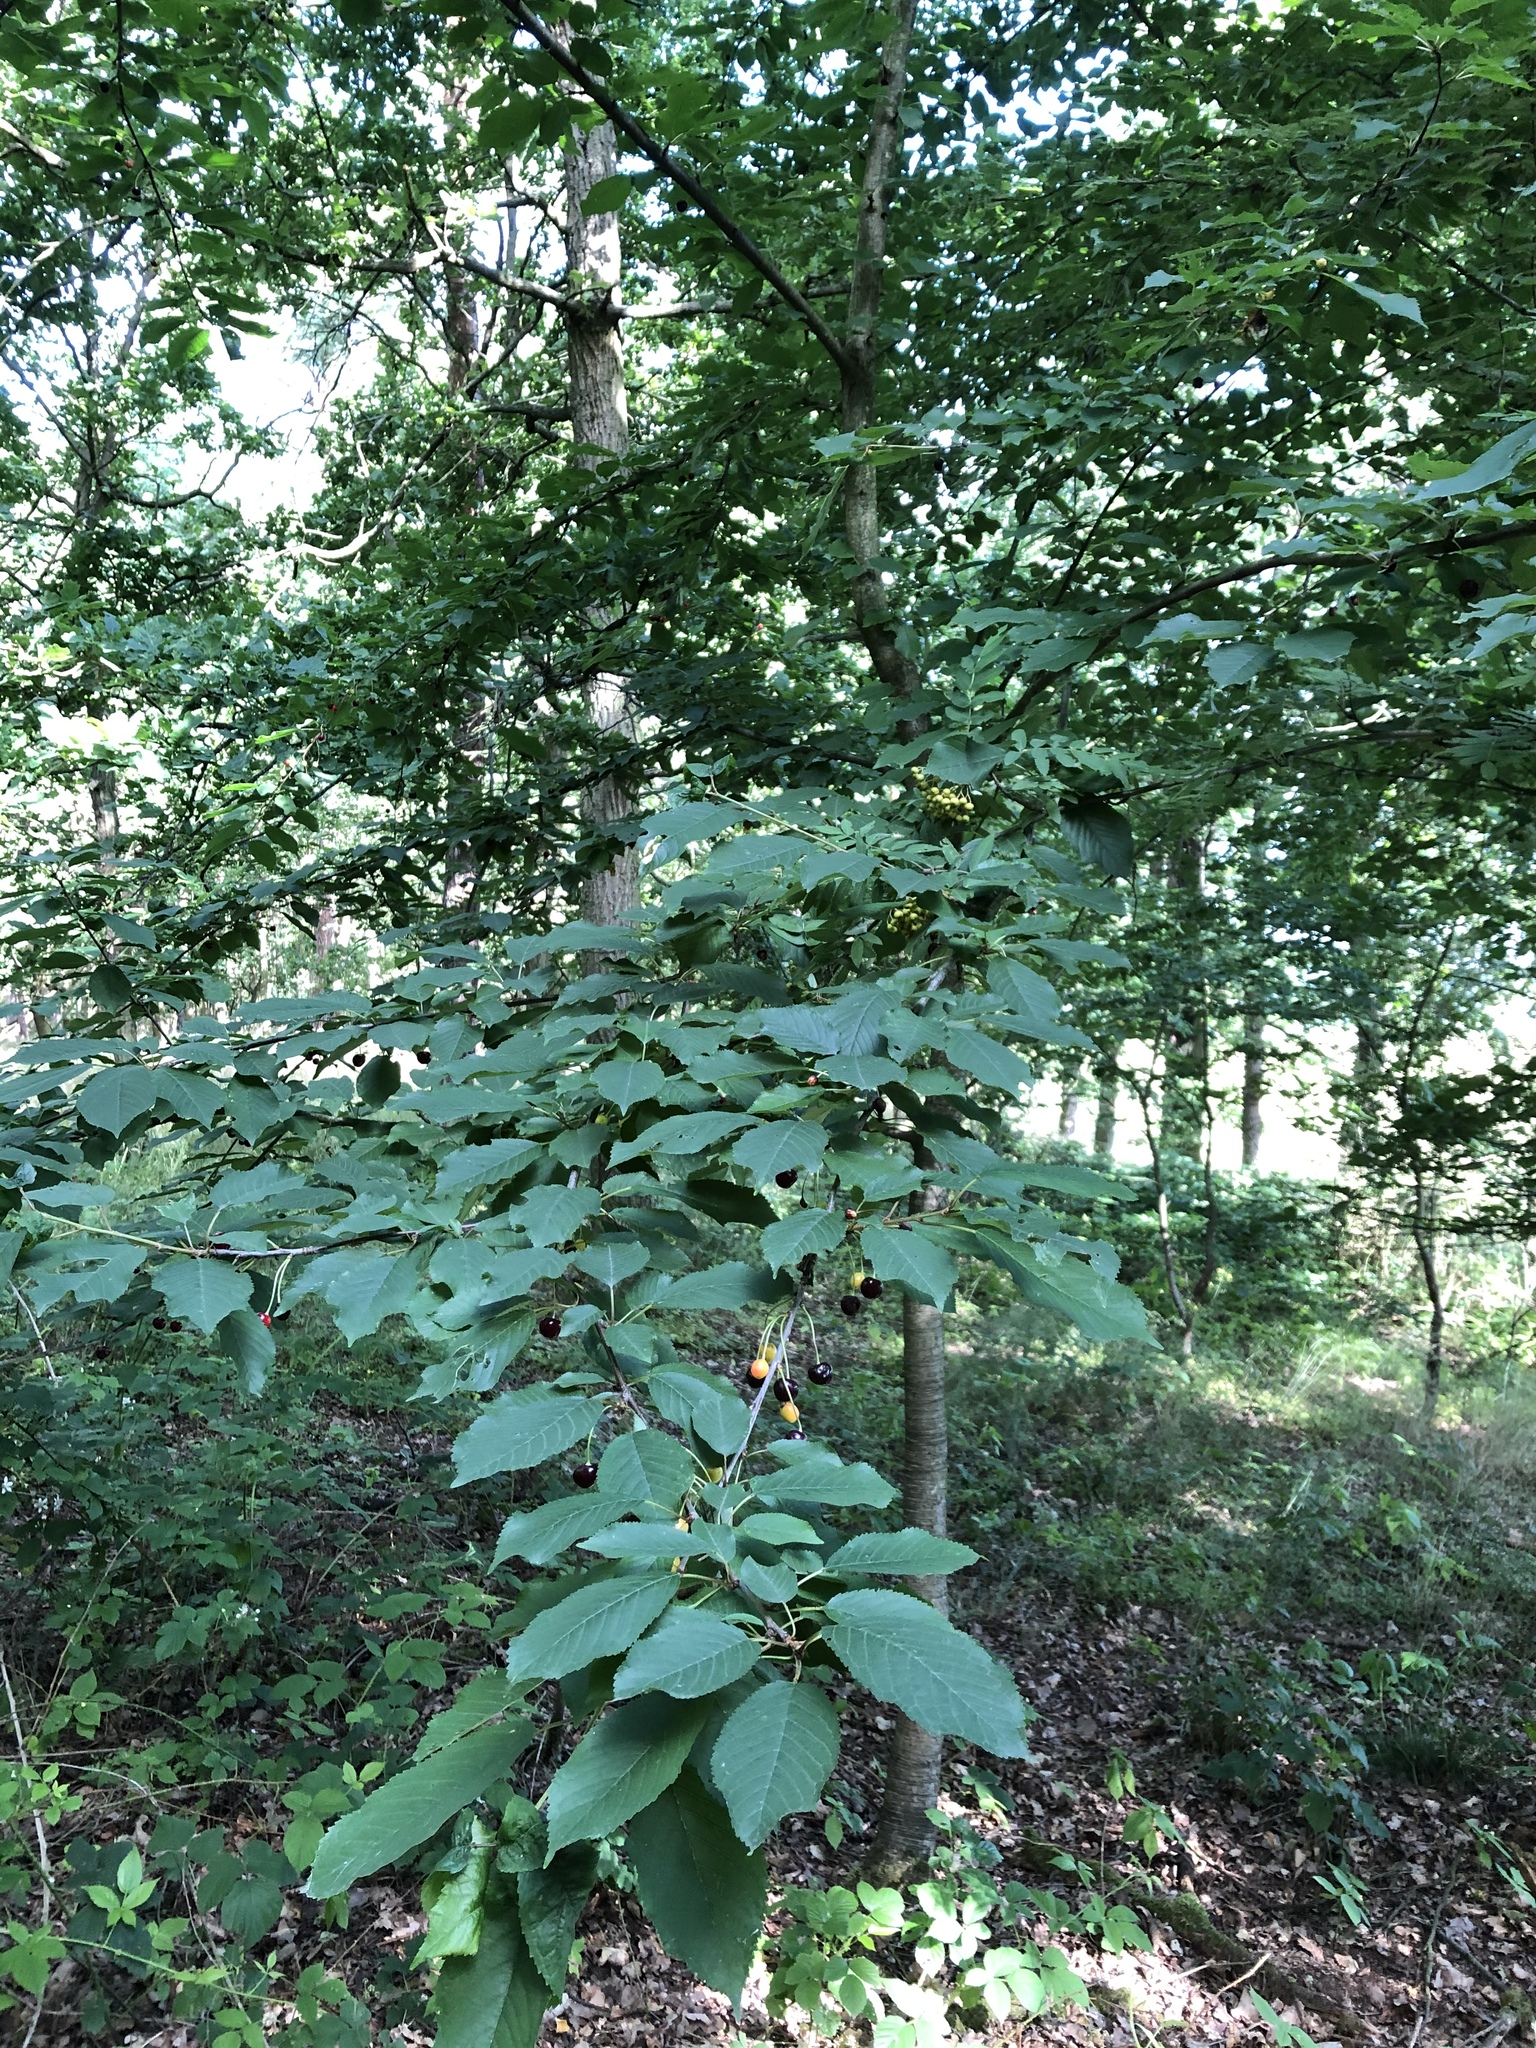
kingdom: Plantae
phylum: Tracheophyta
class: Magnoliopsida
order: Rosales
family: Rosaceae
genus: Prunus
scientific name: Prunus avium
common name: Sweet cherry
